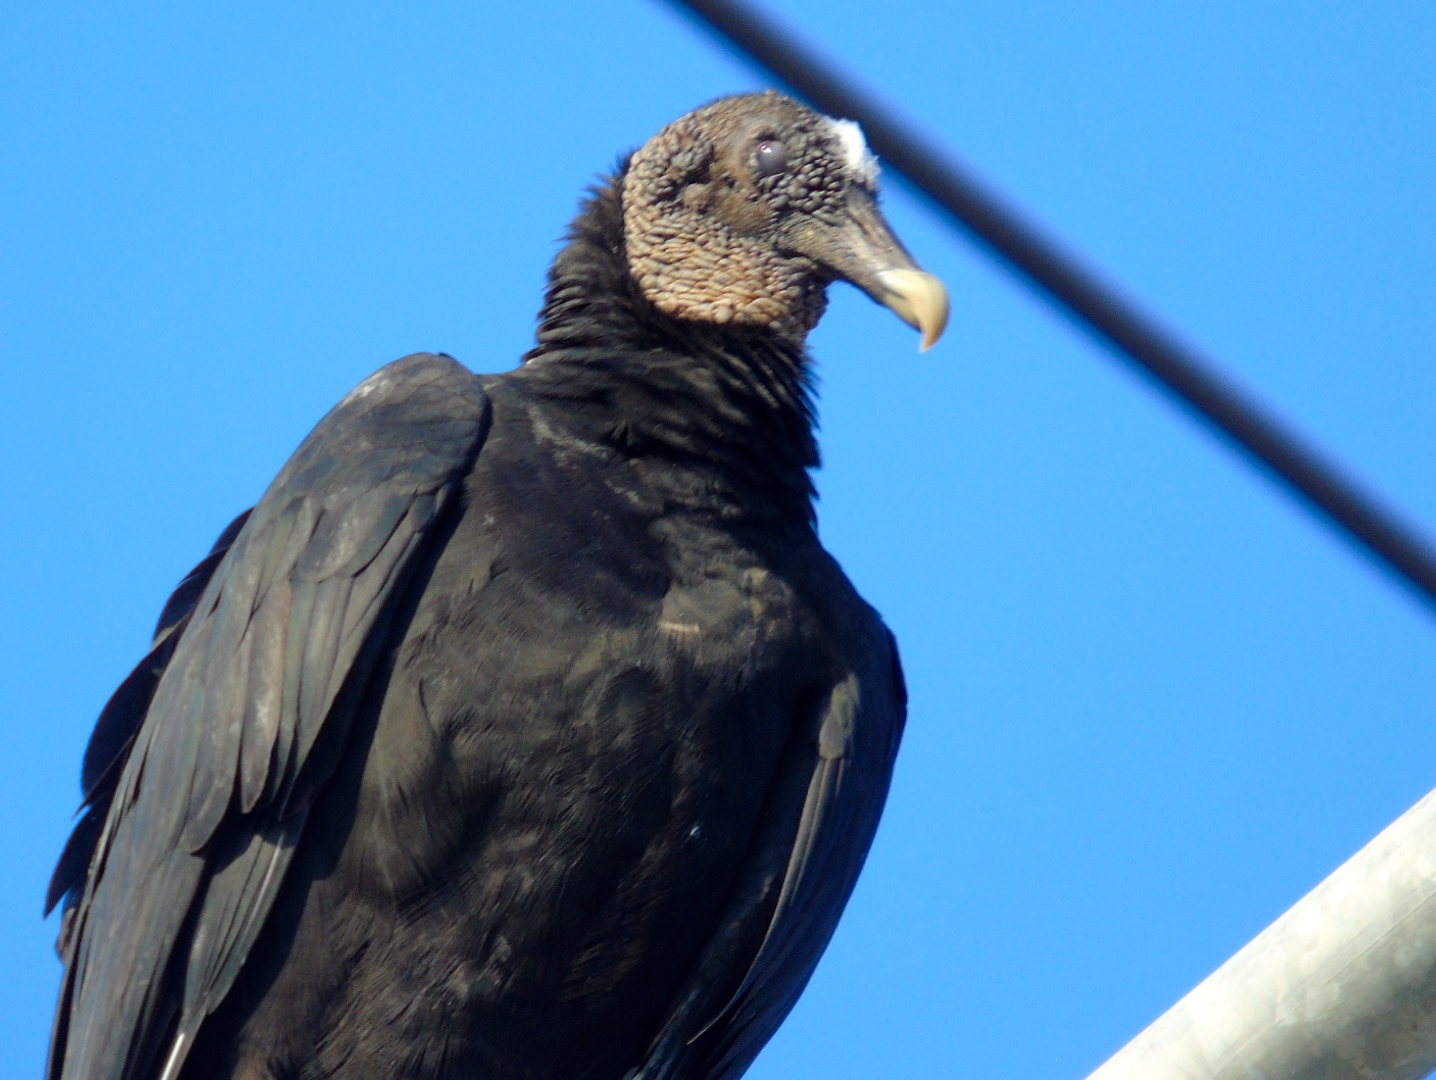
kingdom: Animalia
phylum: Chordata
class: Aves
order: Accipitriformes
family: Cathartidae
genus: Coragyps
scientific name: Coragyps atratus
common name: Black vulture
